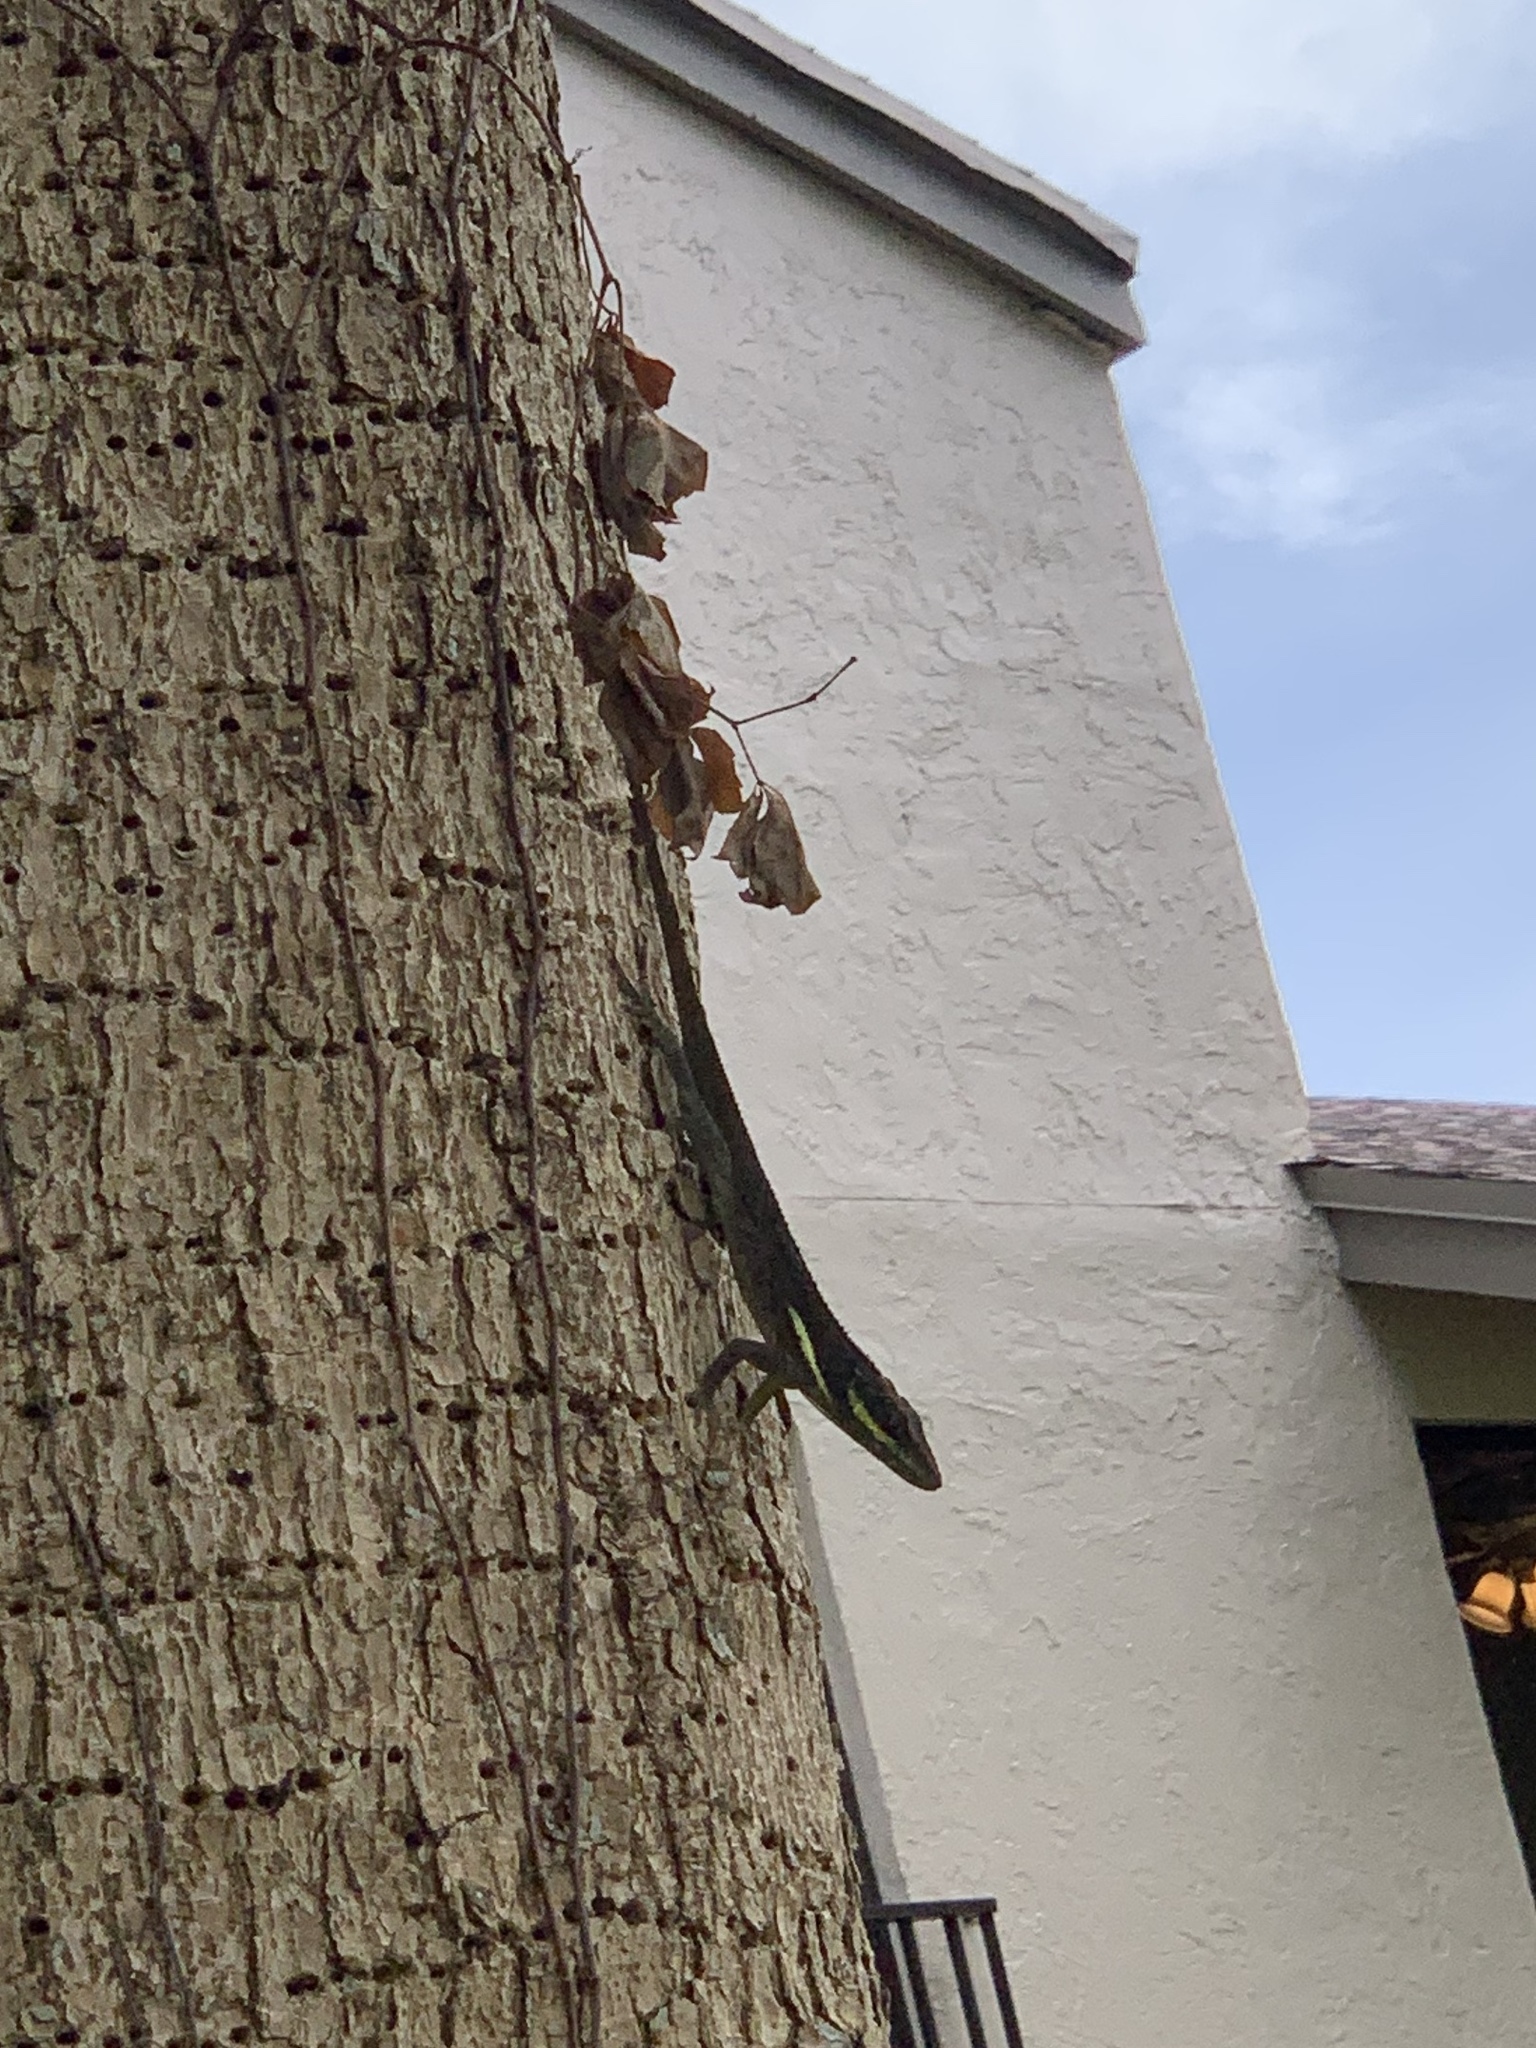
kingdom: Animalia
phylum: Chordata
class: Squamata
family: Dactyloidae
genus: Anolis
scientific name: Anolis equestris
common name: Knight anole
